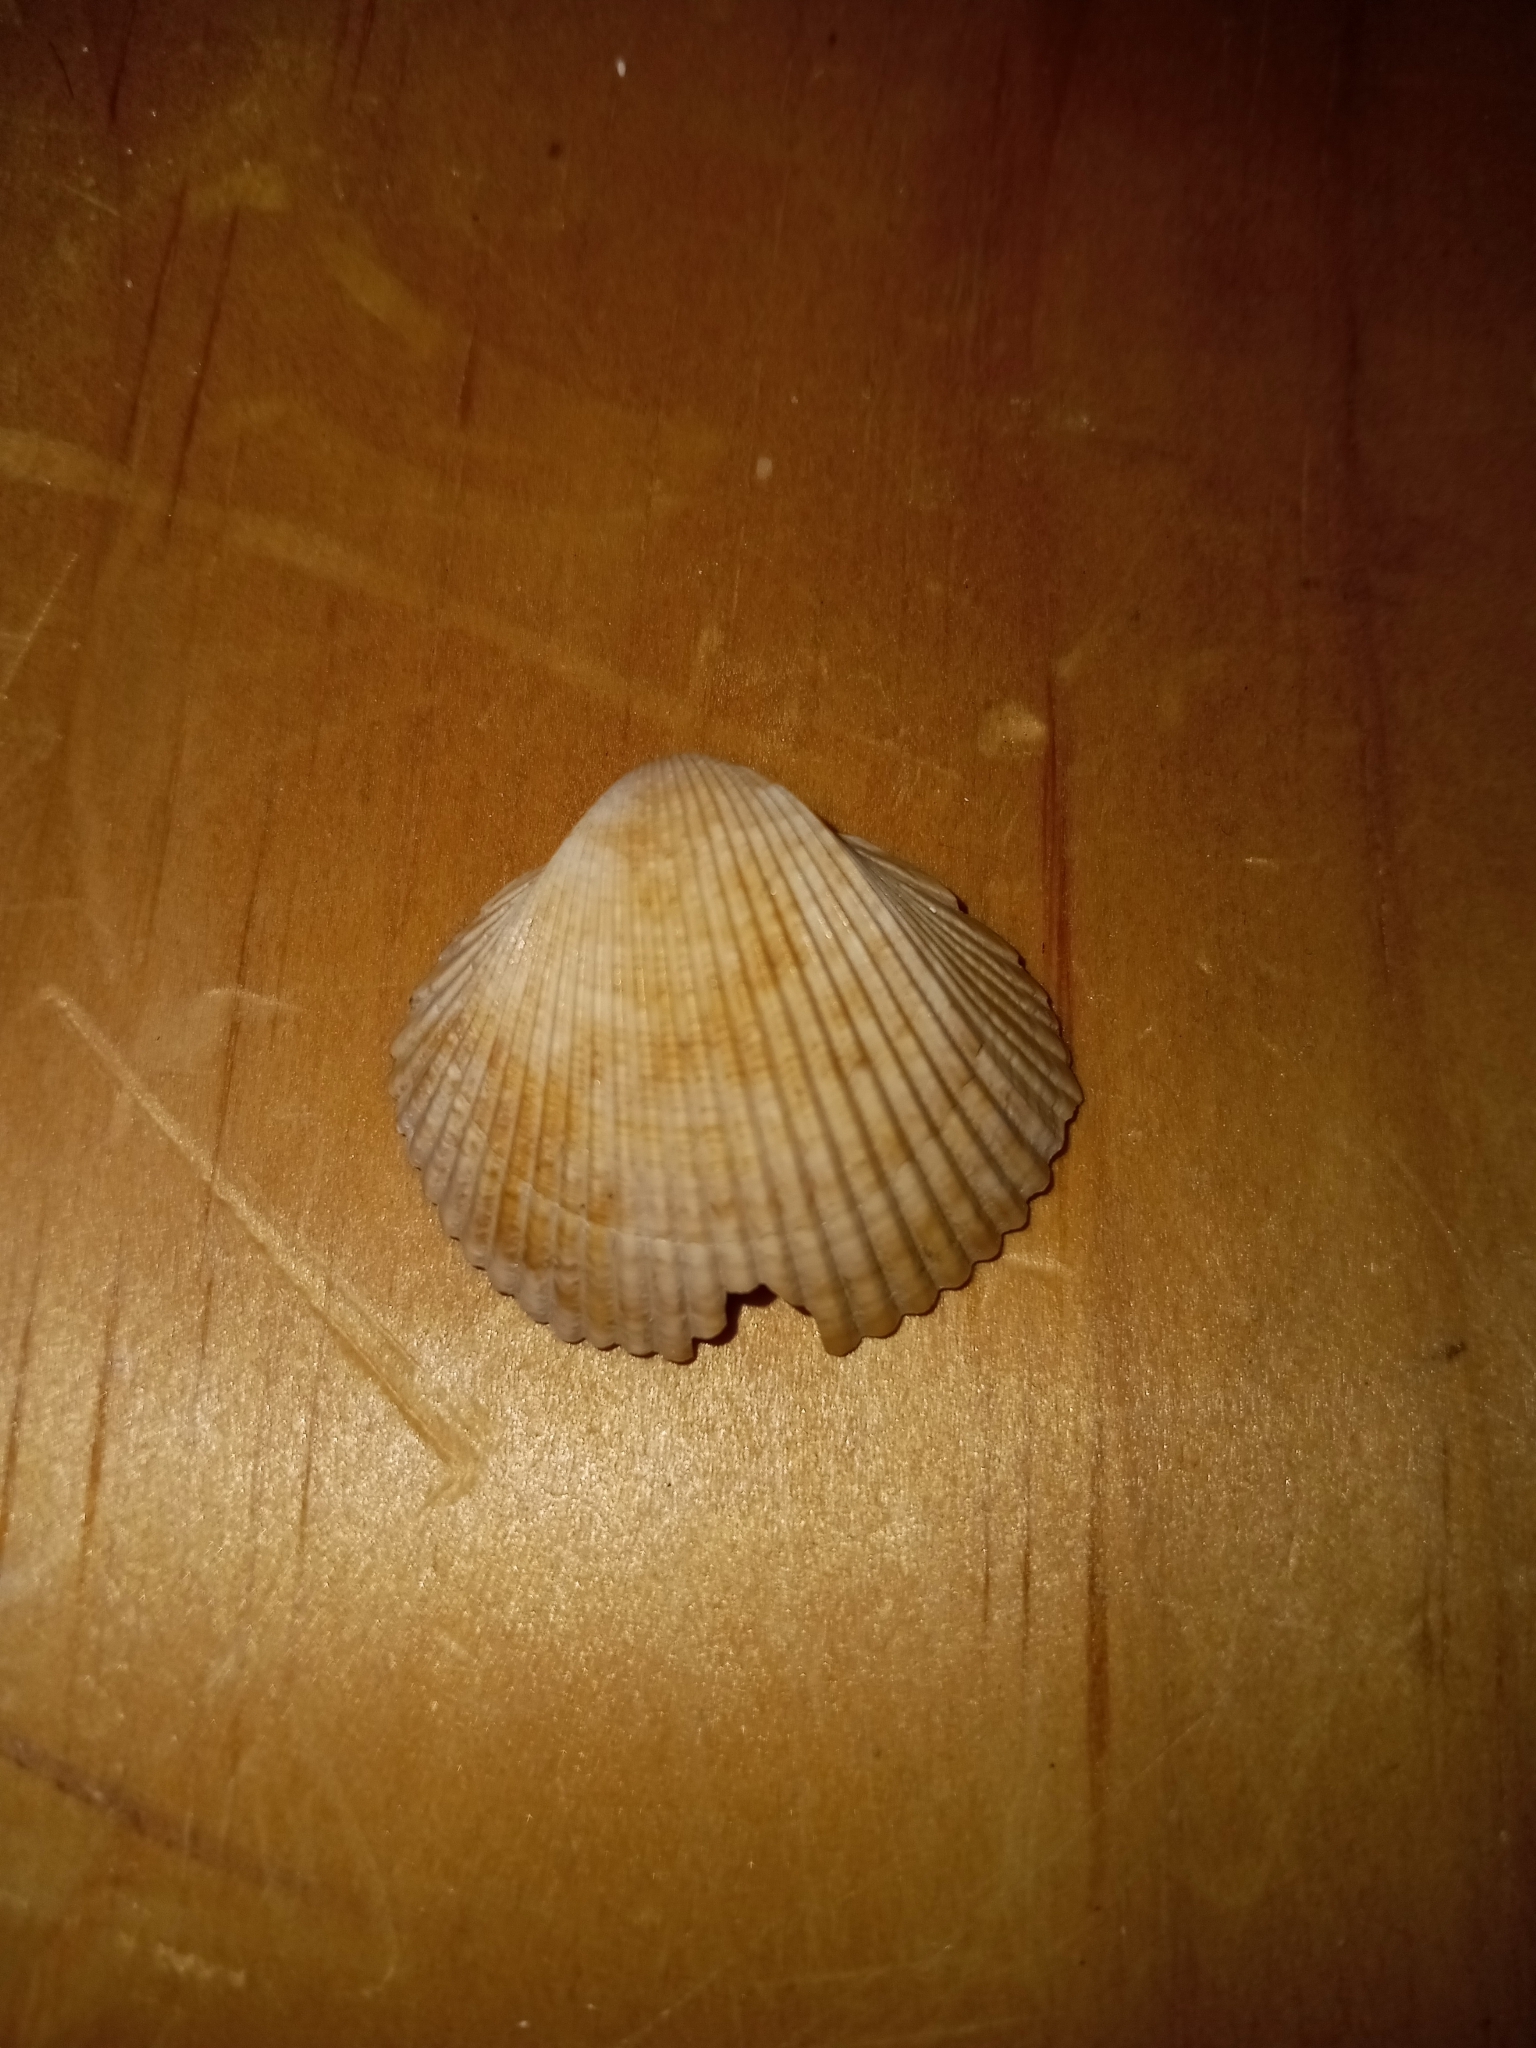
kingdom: Animalia
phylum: Mollusca
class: Bivalvia
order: Cardiida
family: Cardiidae
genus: Dinocardium
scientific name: Dinocardium robustum
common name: Atlantic giant cockle
